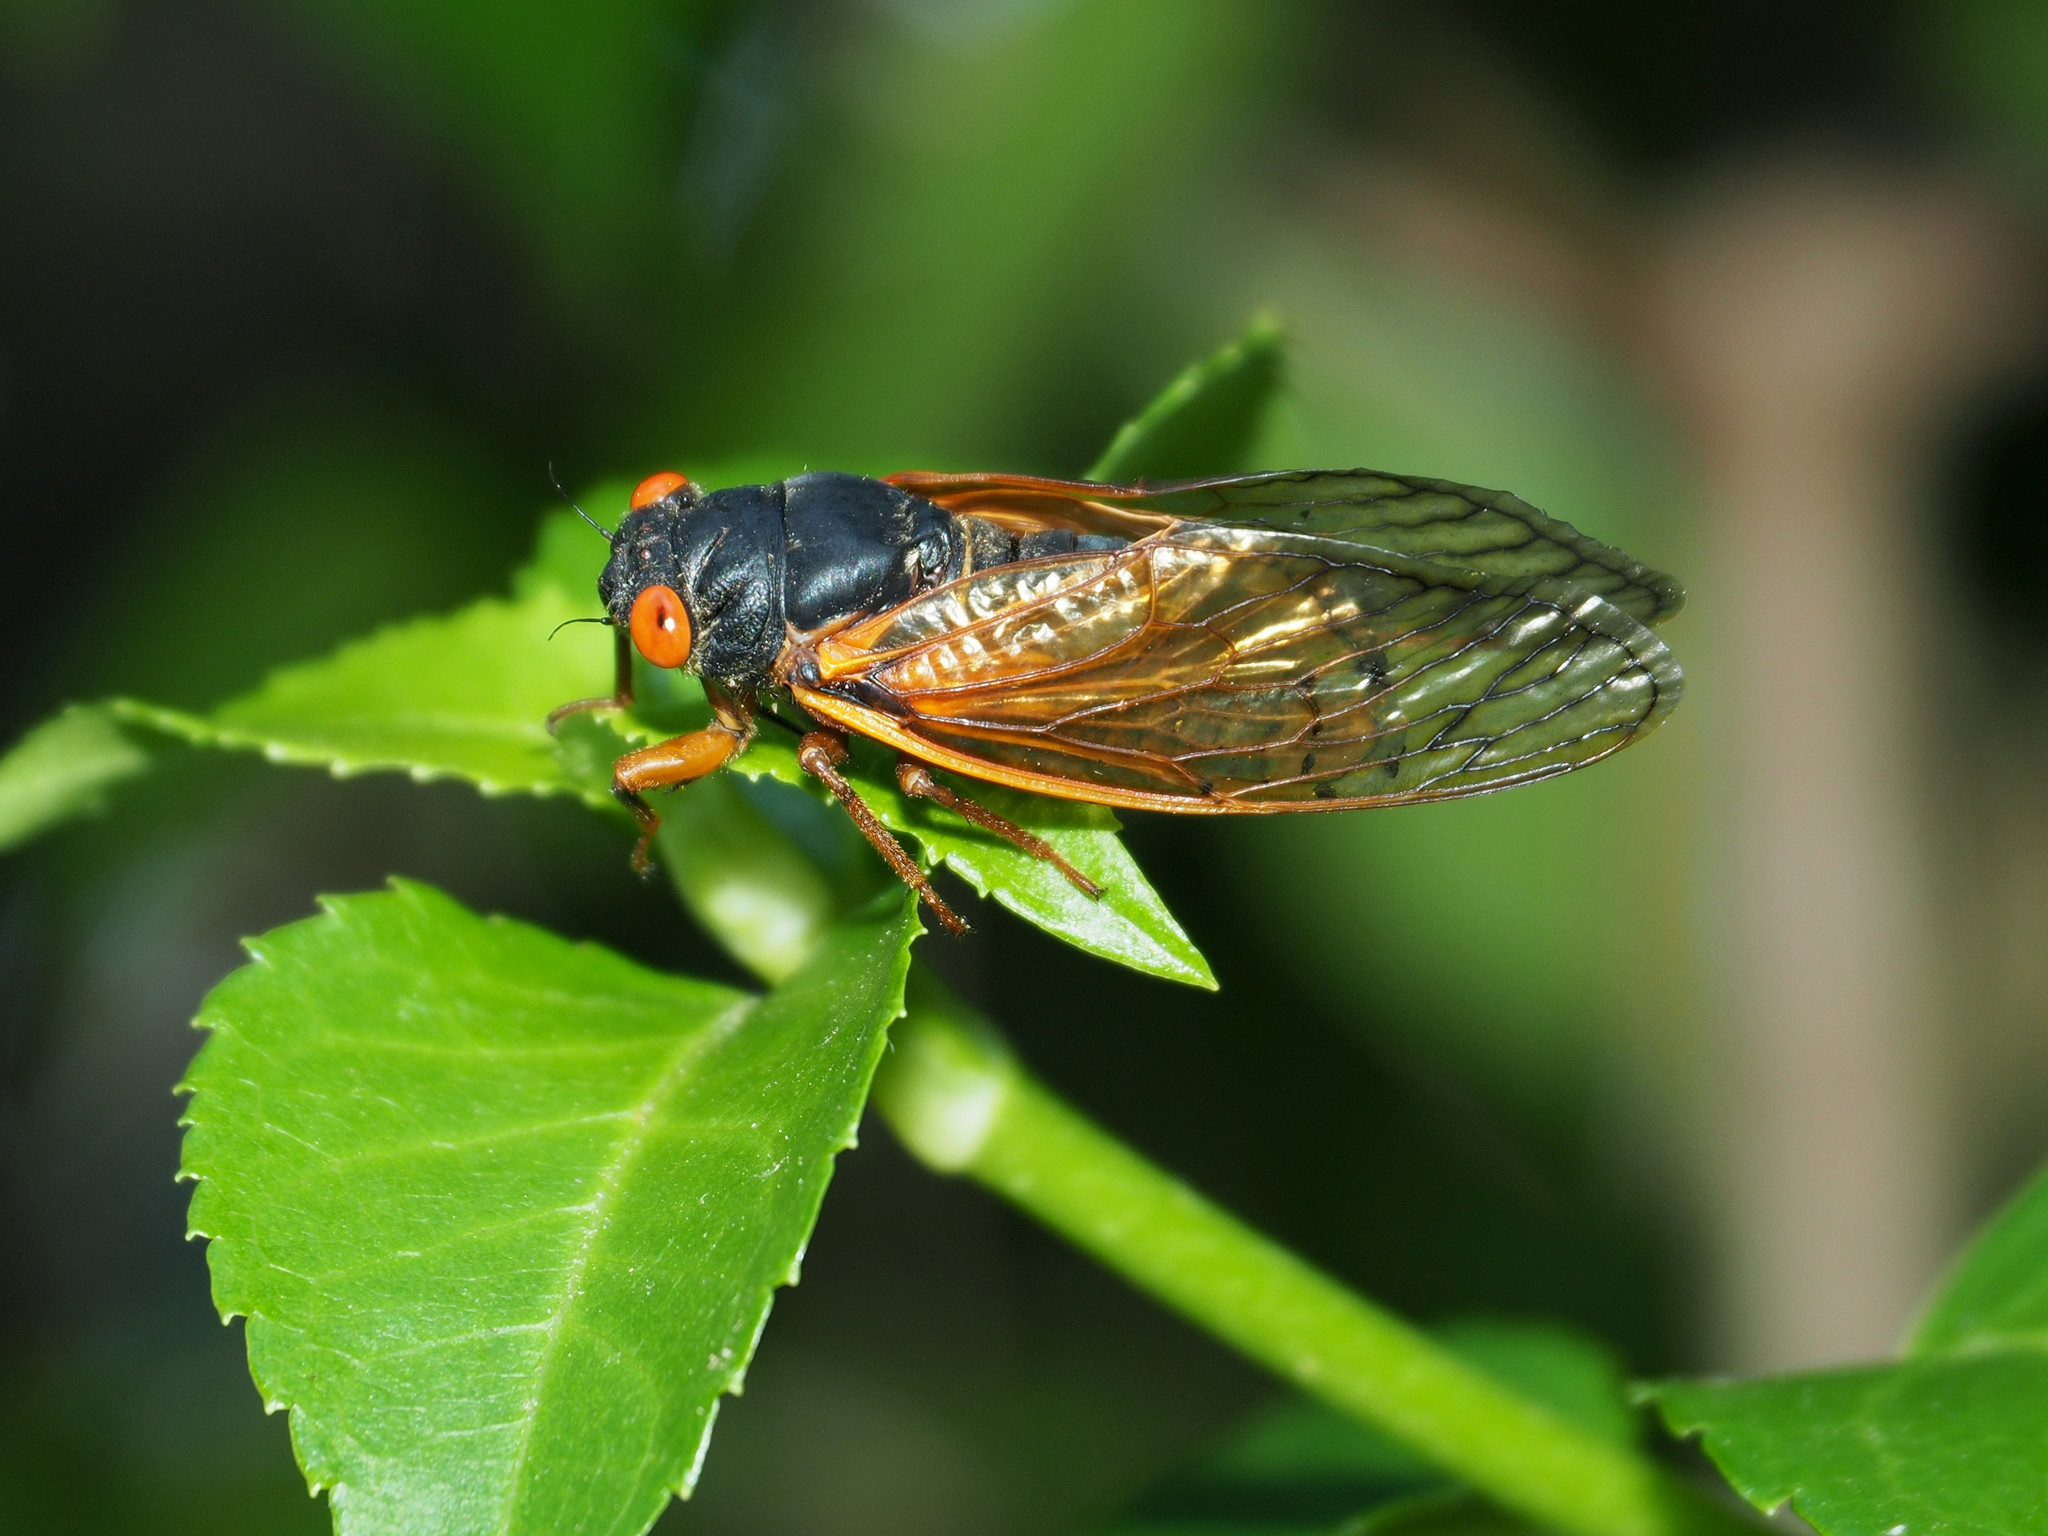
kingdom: Animalia
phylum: Arthropoda
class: Insecta
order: Hemiptera
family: Cicadidae
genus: Magicicada
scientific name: Magicicada septendecula
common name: Decula periodical cicada
